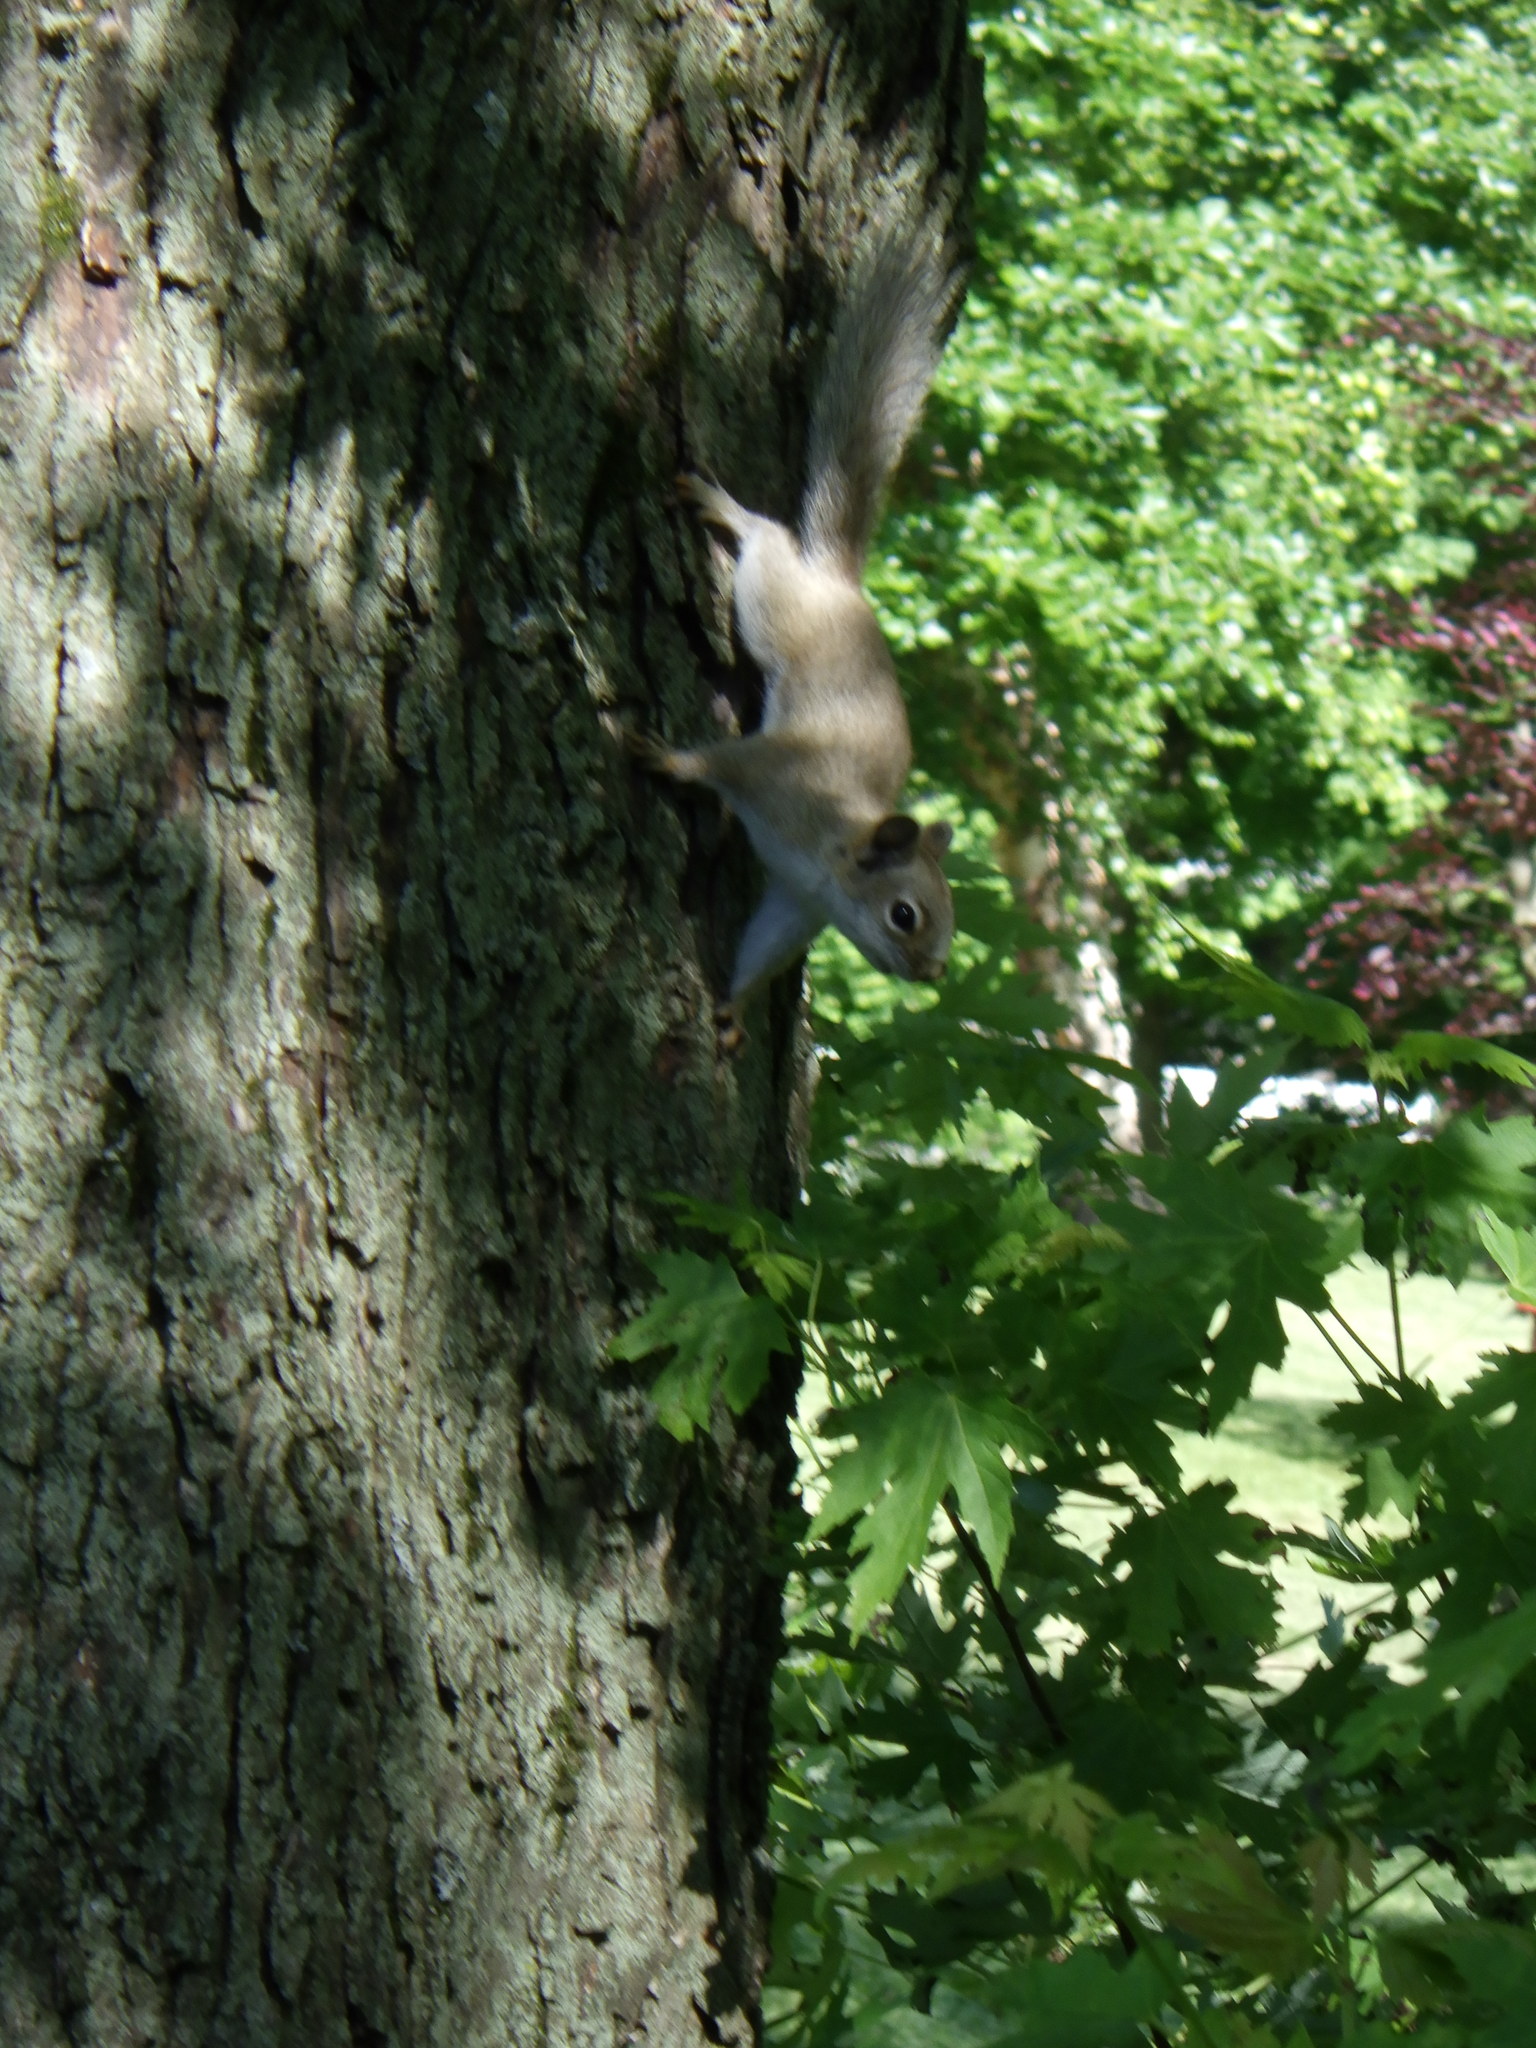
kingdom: Animalia
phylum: Chordata
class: Mammalia
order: Rodentia
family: Sciuridae
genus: Sciurus
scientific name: Sciurus carolinensis
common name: Eastern gray squirrel
